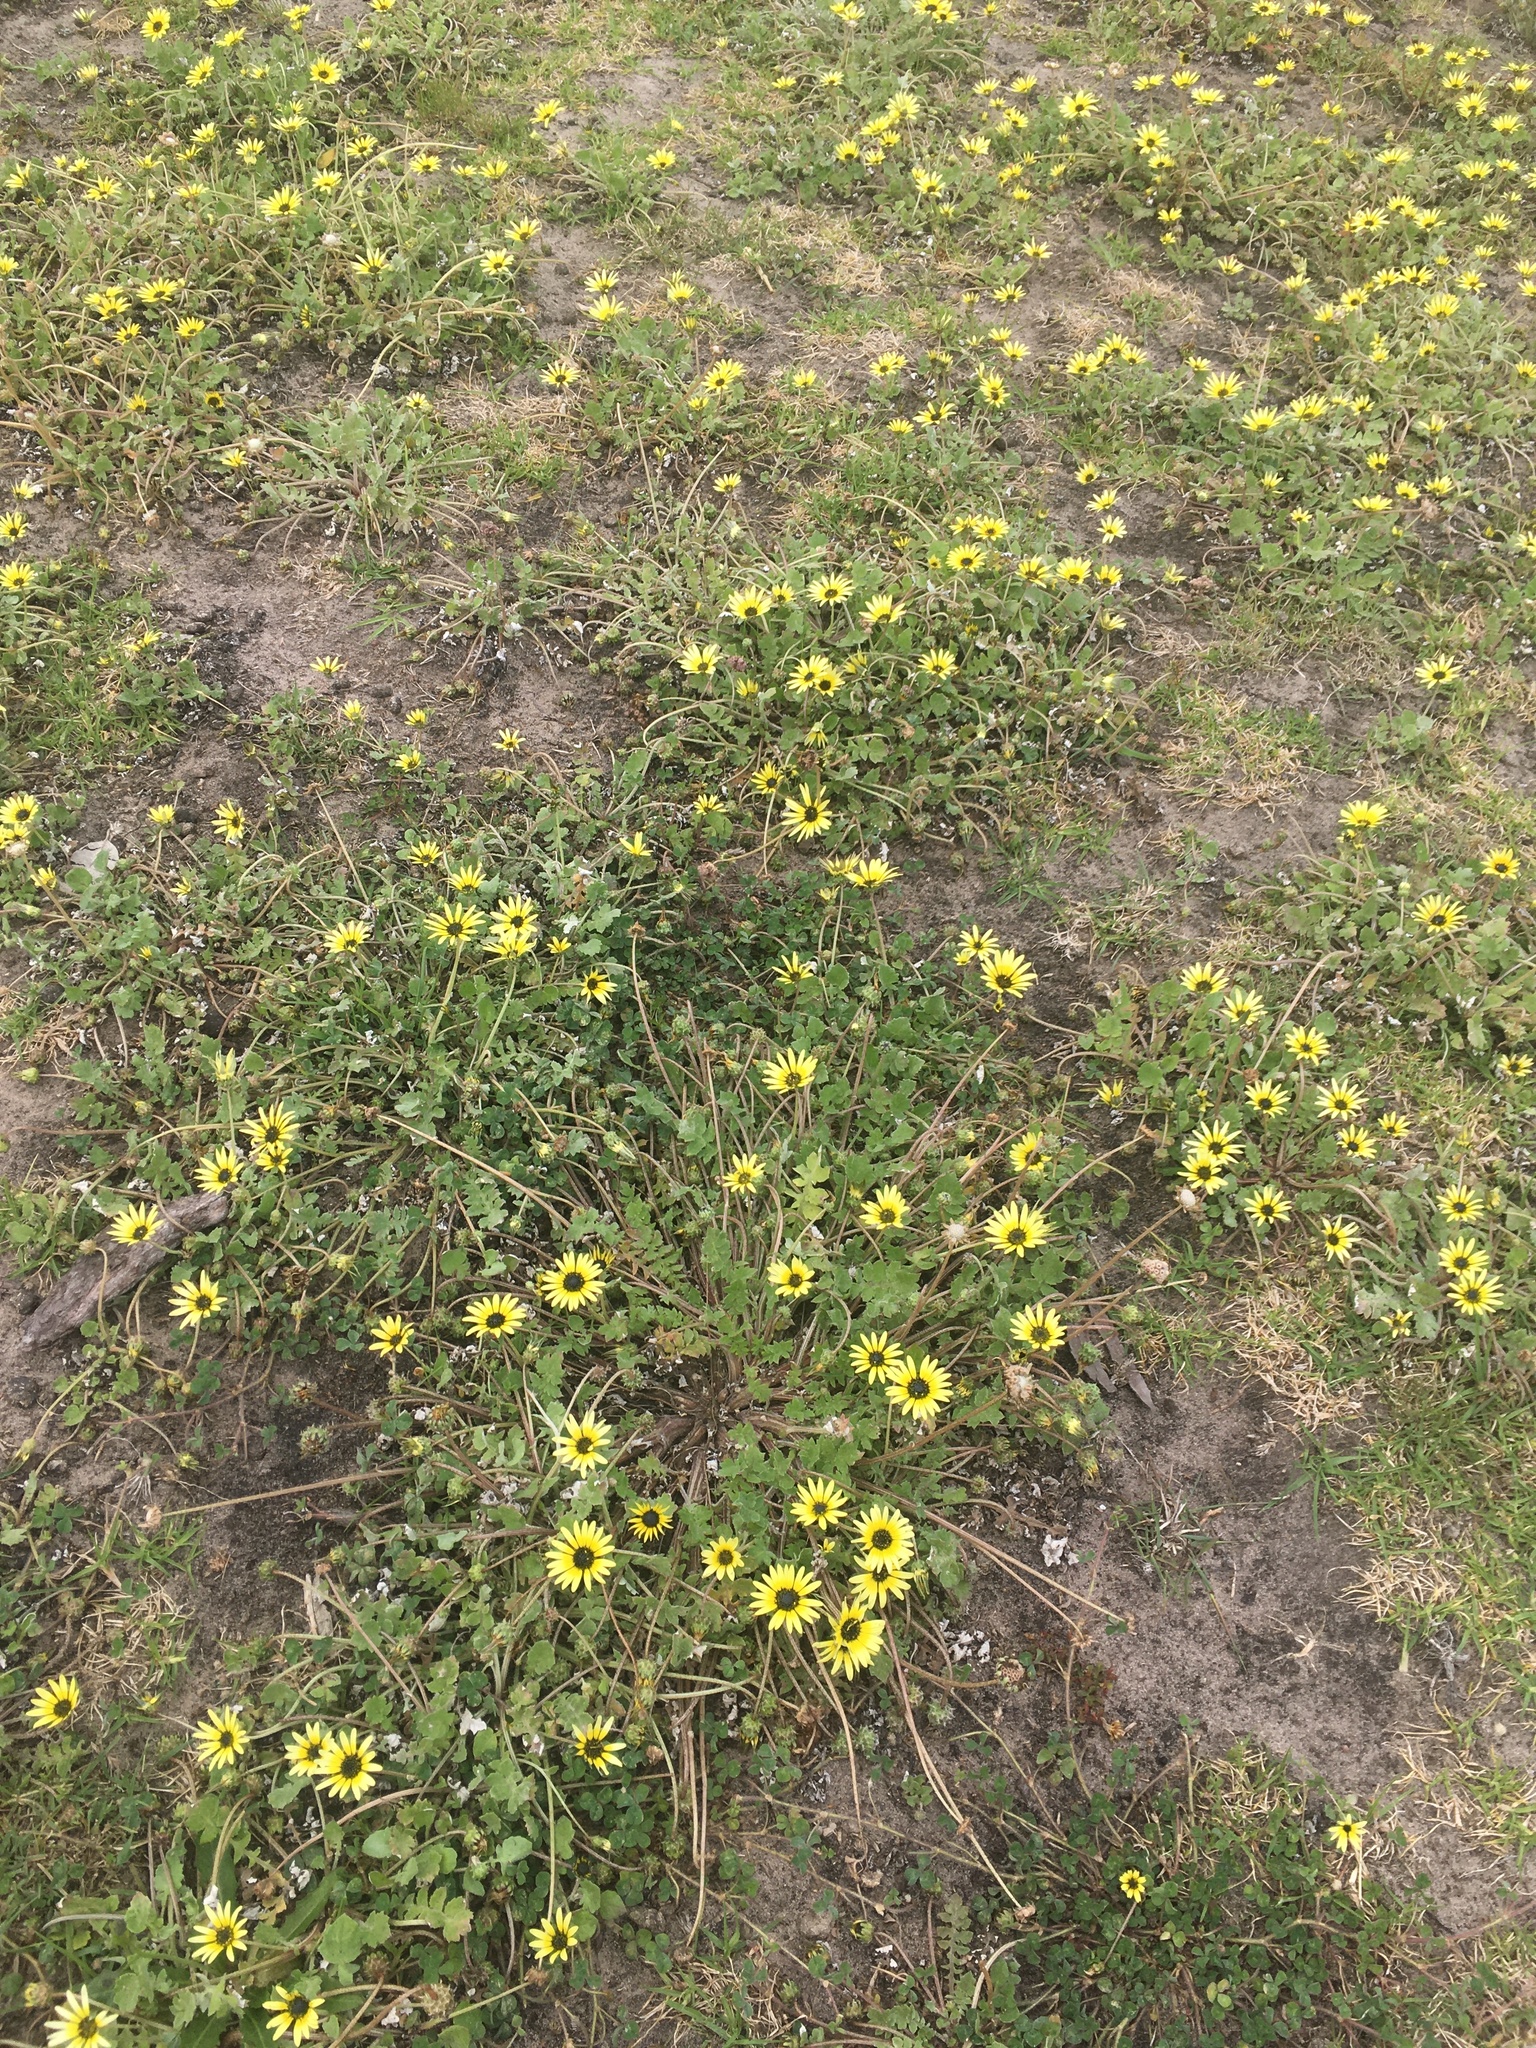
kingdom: Plantae
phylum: Tracheophyta
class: Magnoliopsida
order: Asterales
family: Asteraceae
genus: Arctotheca
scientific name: Arctotheca calendula
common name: Capeweed
